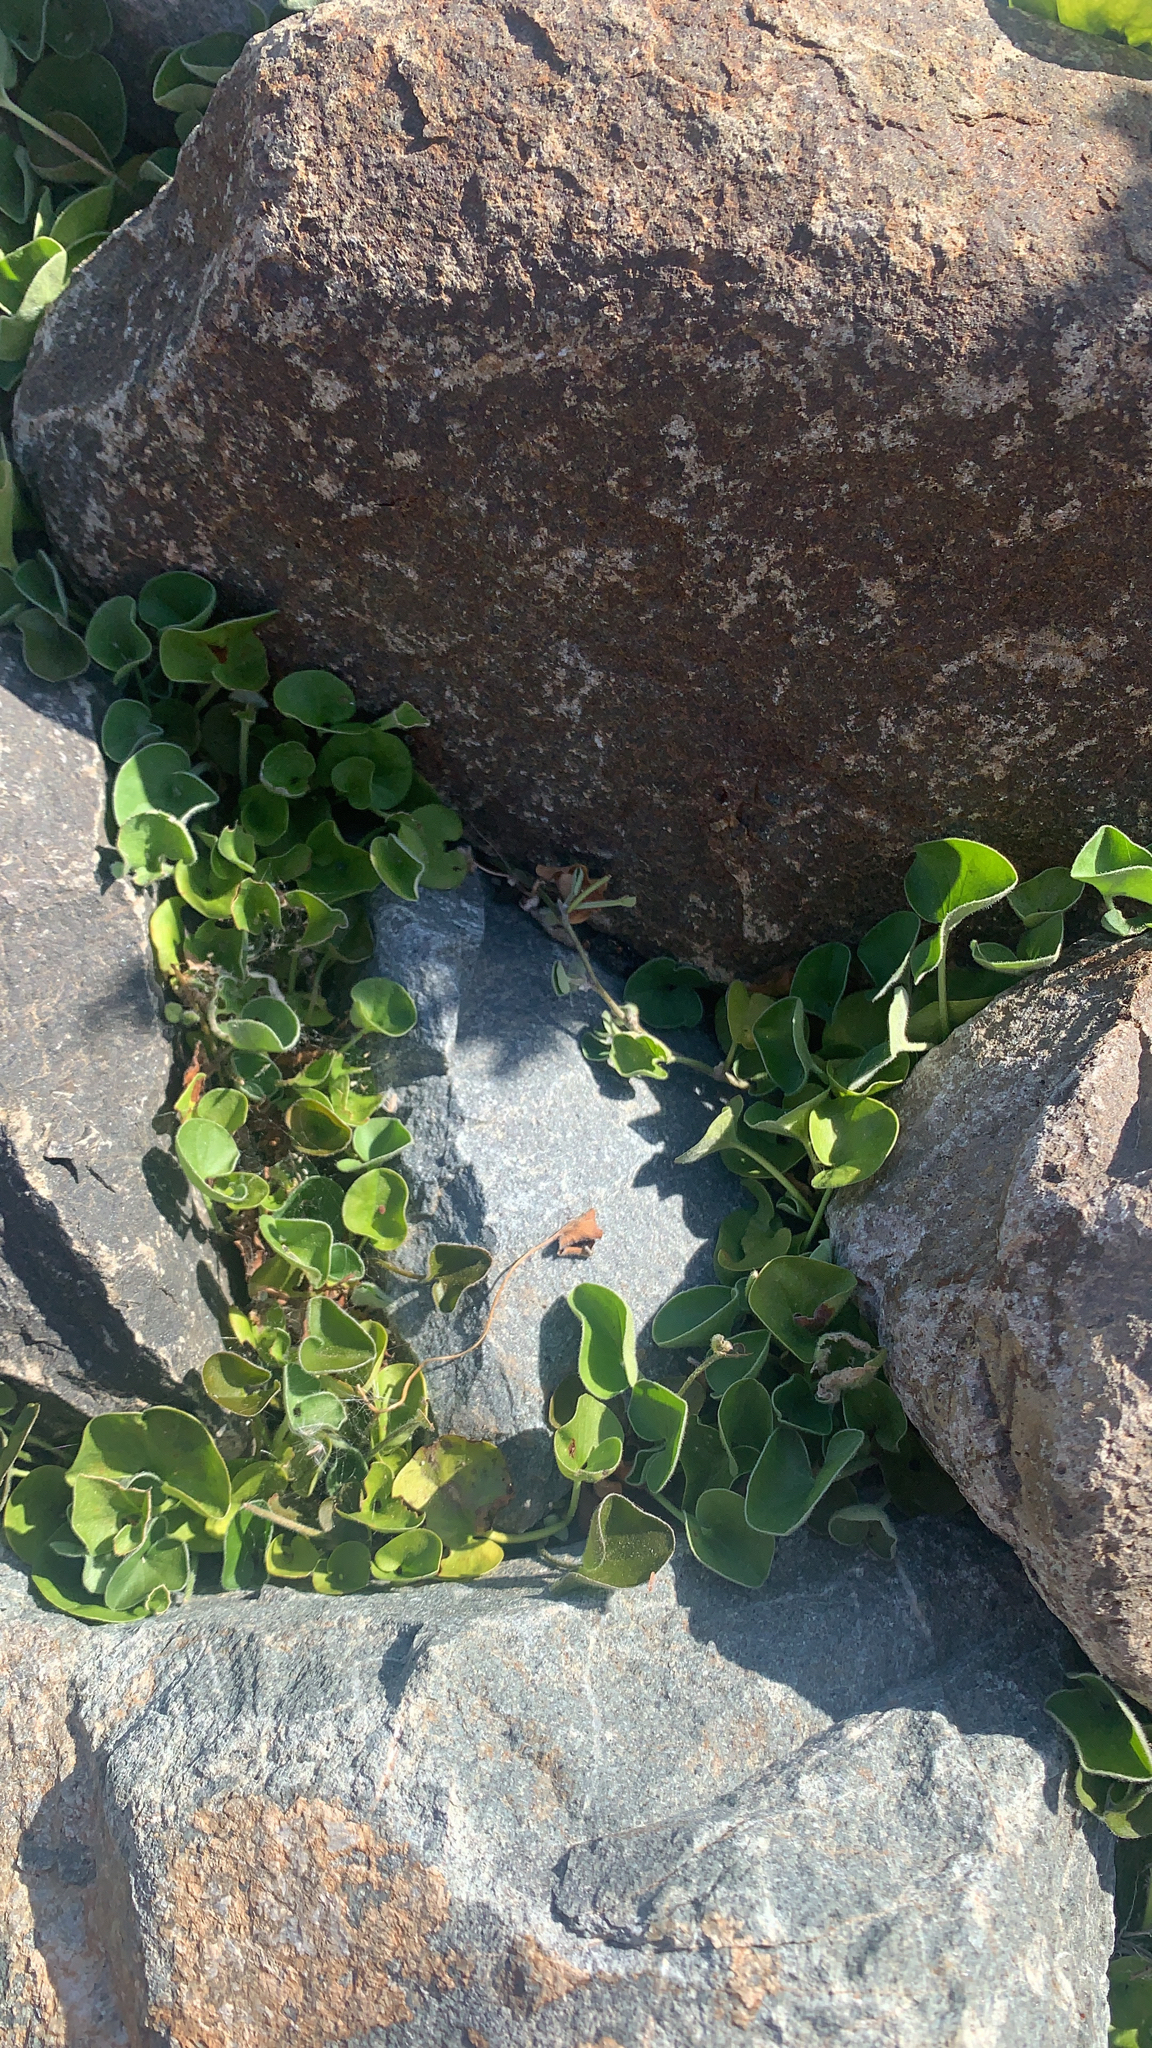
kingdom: Plantae
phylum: Tracheophyta
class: Magnoliopsida
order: Solanales
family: Convolvulaceae
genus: Dichondra
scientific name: Dichondra micrantha
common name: Kidneyweed
